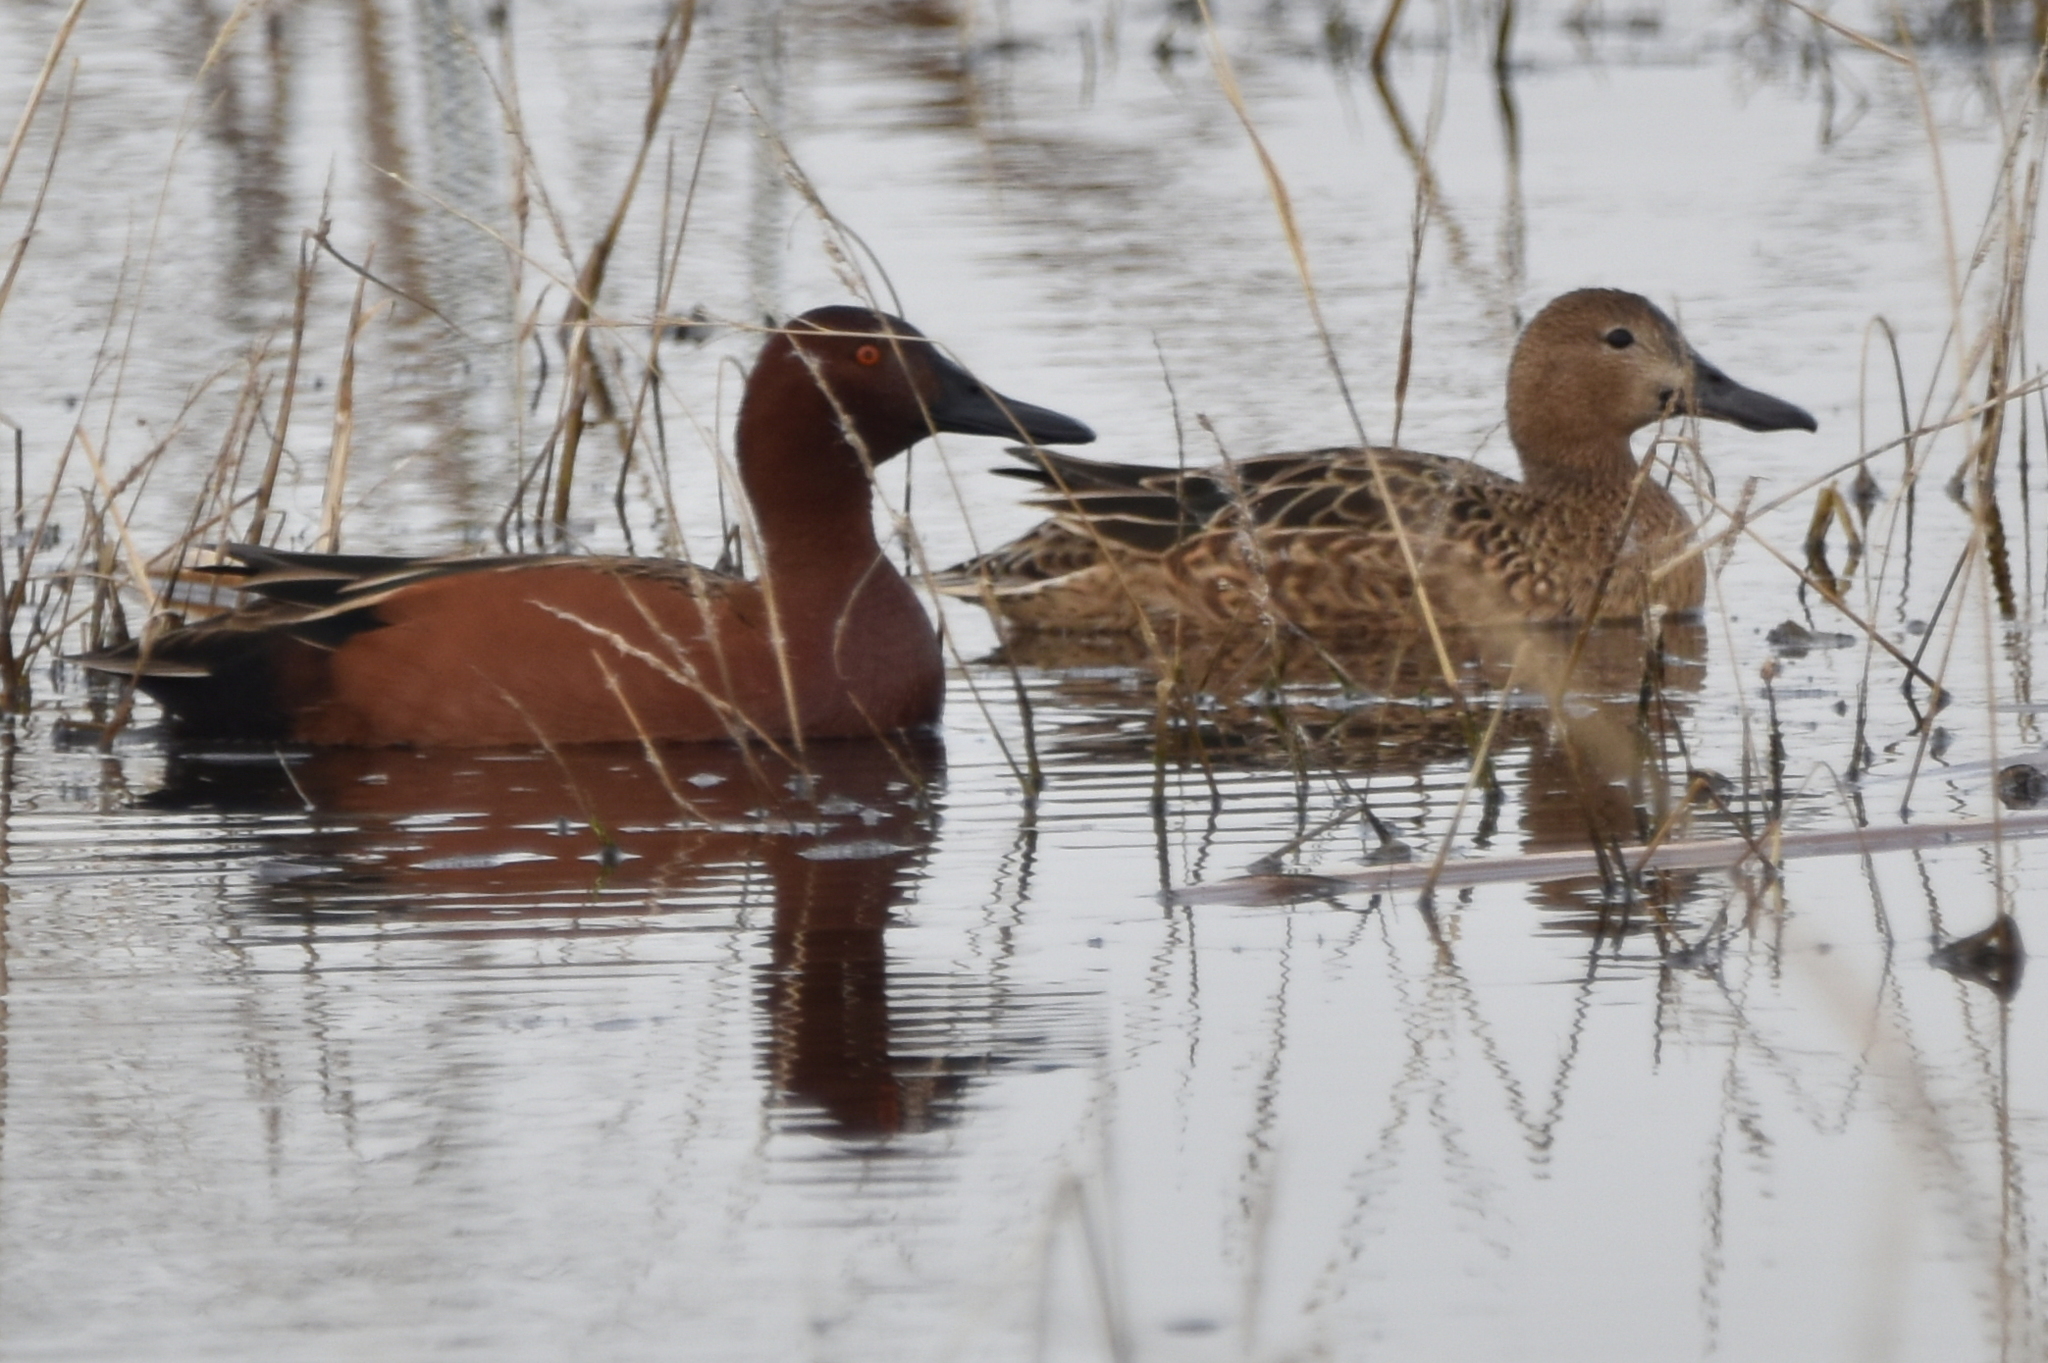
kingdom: Animalia
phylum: Chordata
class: Aves
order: Anseriformes
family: Anatidae
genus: Spatula
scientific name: Spatula cyanoptera
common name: Cinnamon teal
